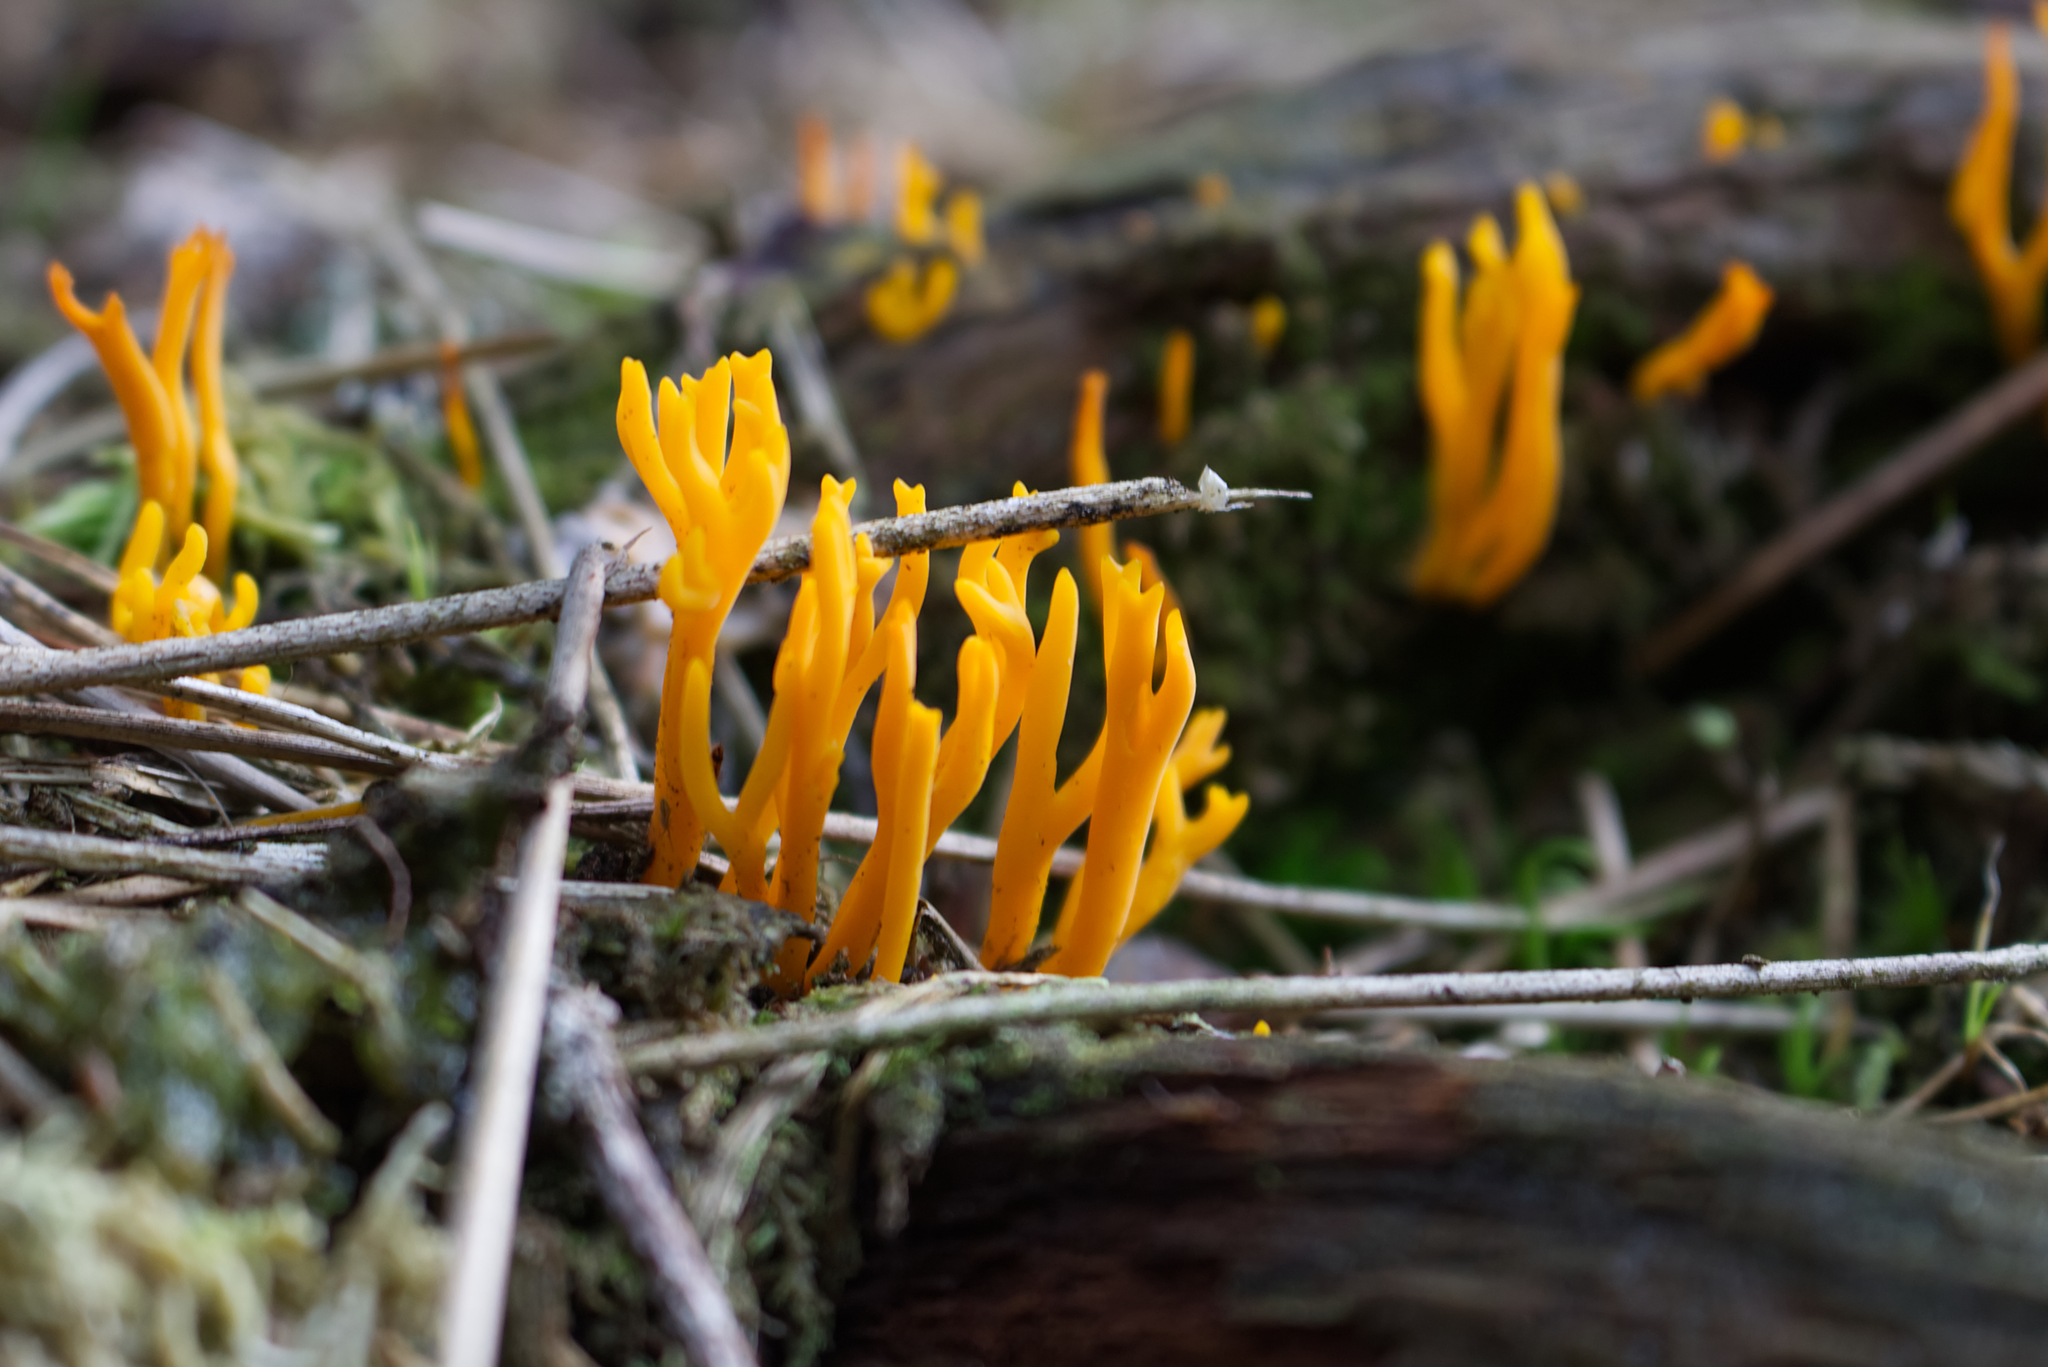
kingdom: Fungi
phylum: Basidiomycota
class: Dacrymycetes
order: Dacrymycetales
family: Dacrymycetaceae
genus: Calocera
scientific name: Calocera viscosa
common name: Yellow stagshorn
